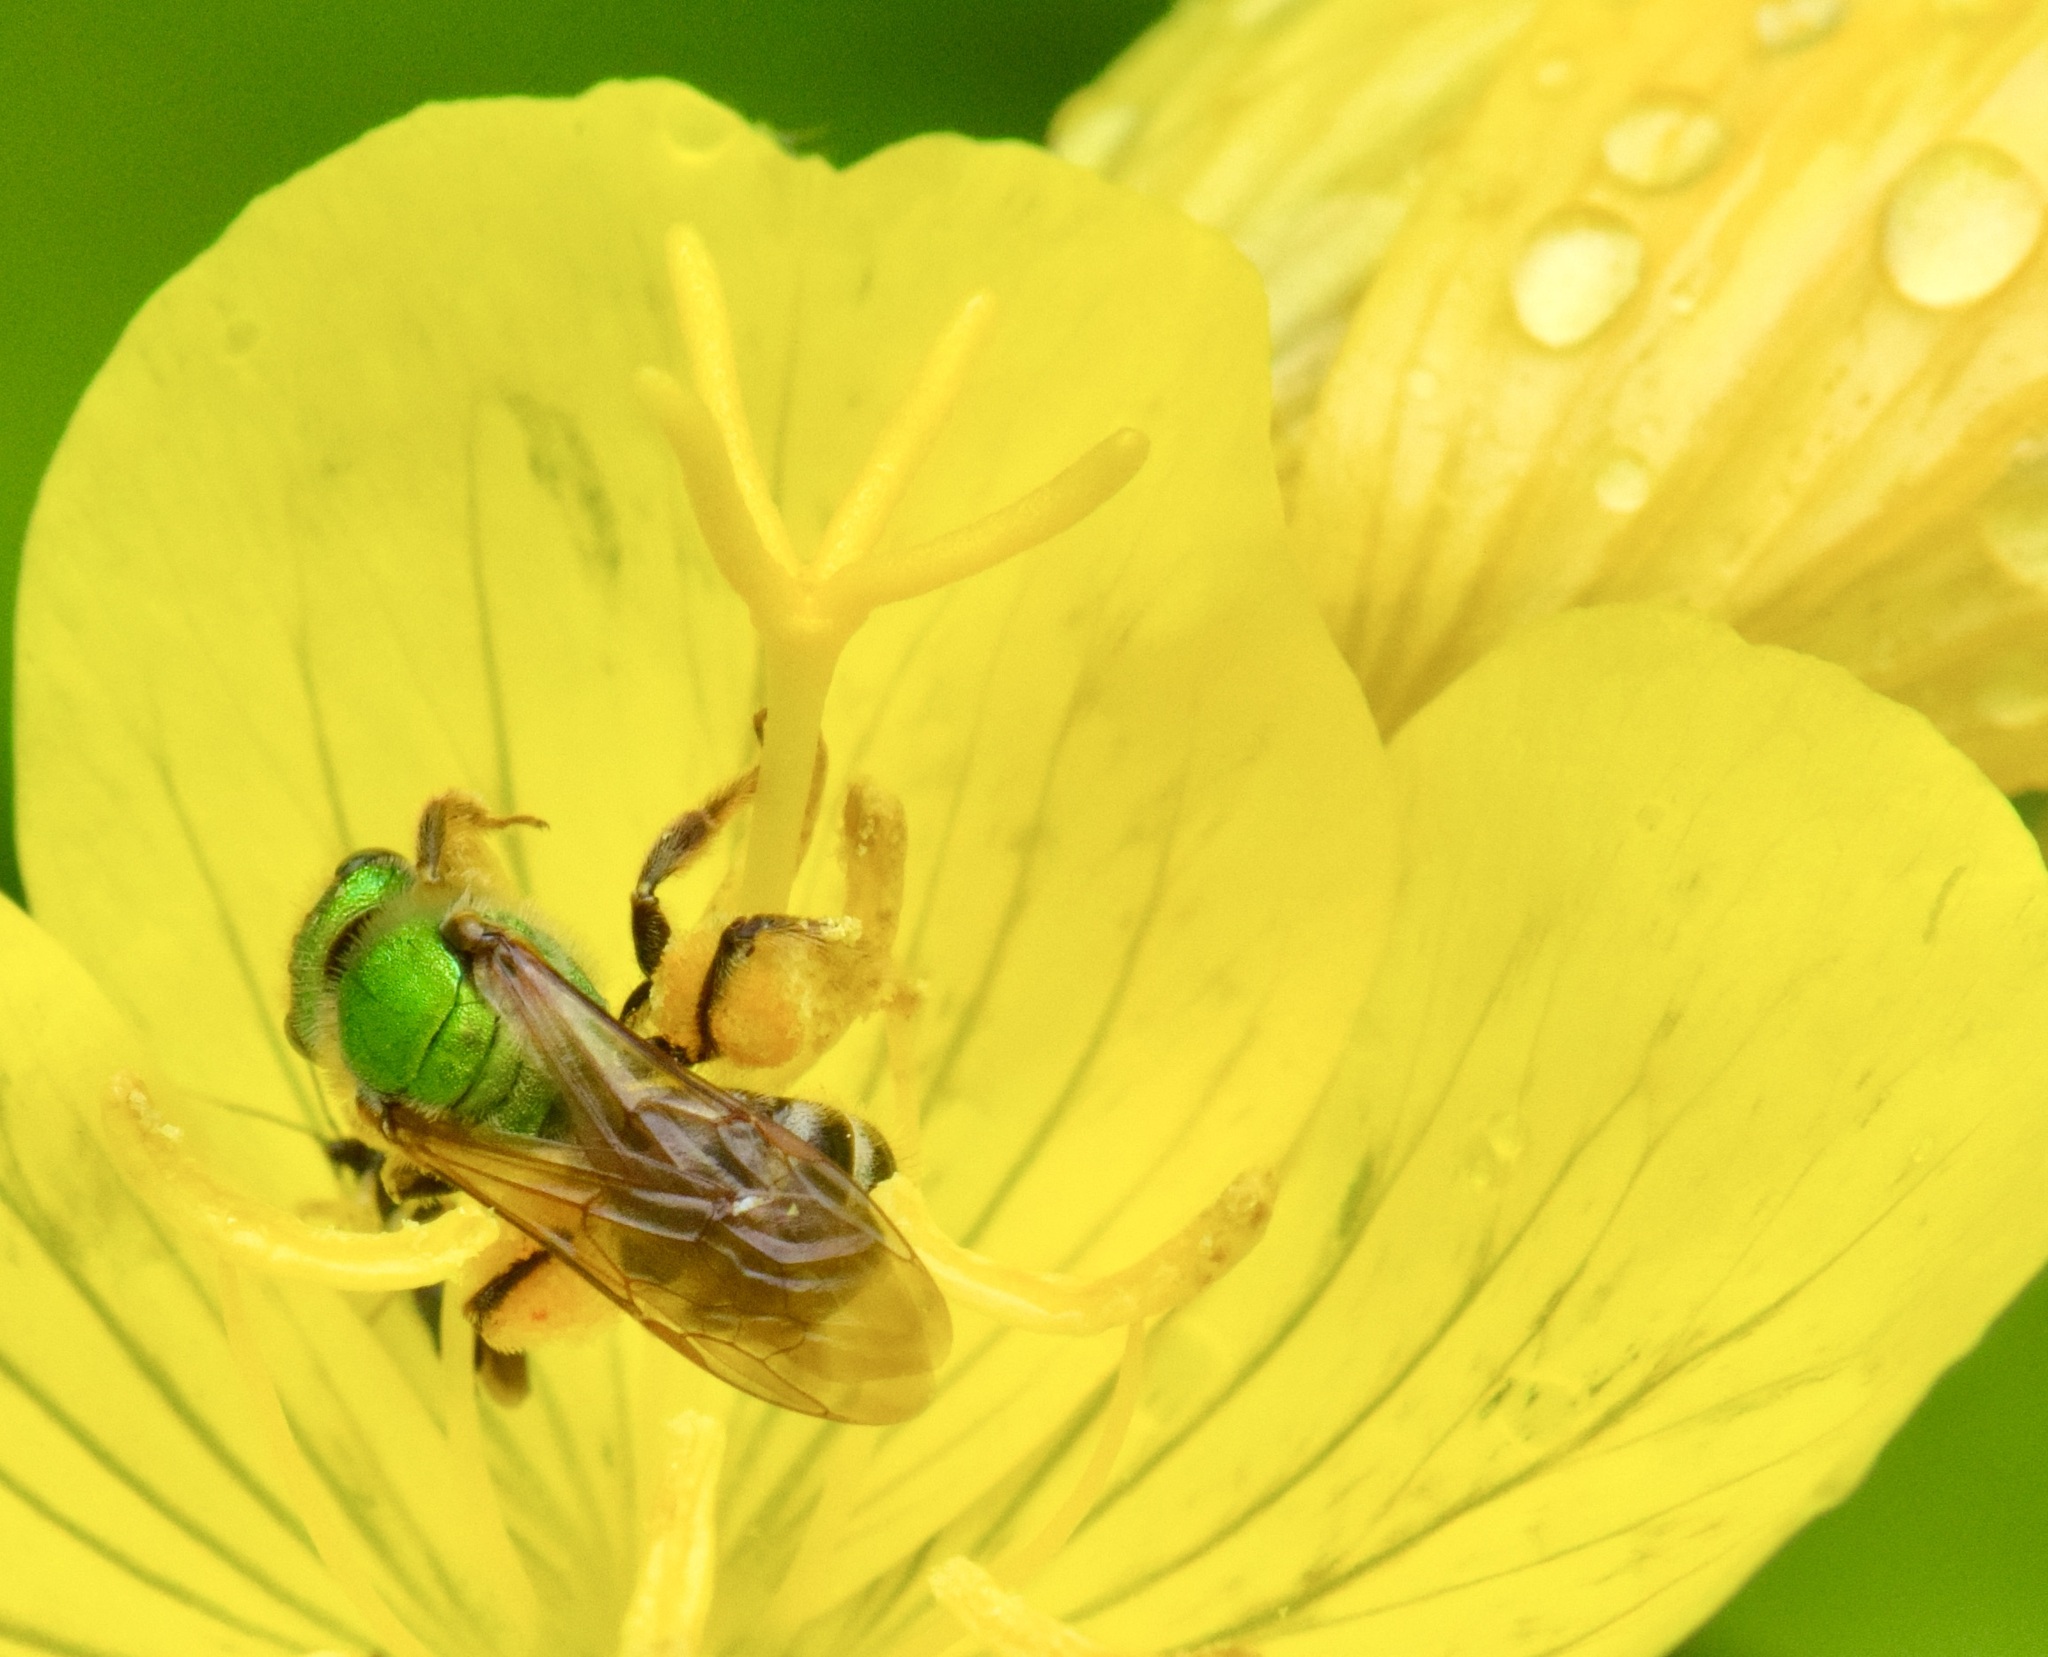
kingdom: Animalia
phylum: Arthropoda
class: Insecta
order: Hymenoptera
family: Halictidae
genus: Agapostemon
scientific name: Agapostemon virescens
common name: Bicolored striped sweat bee
